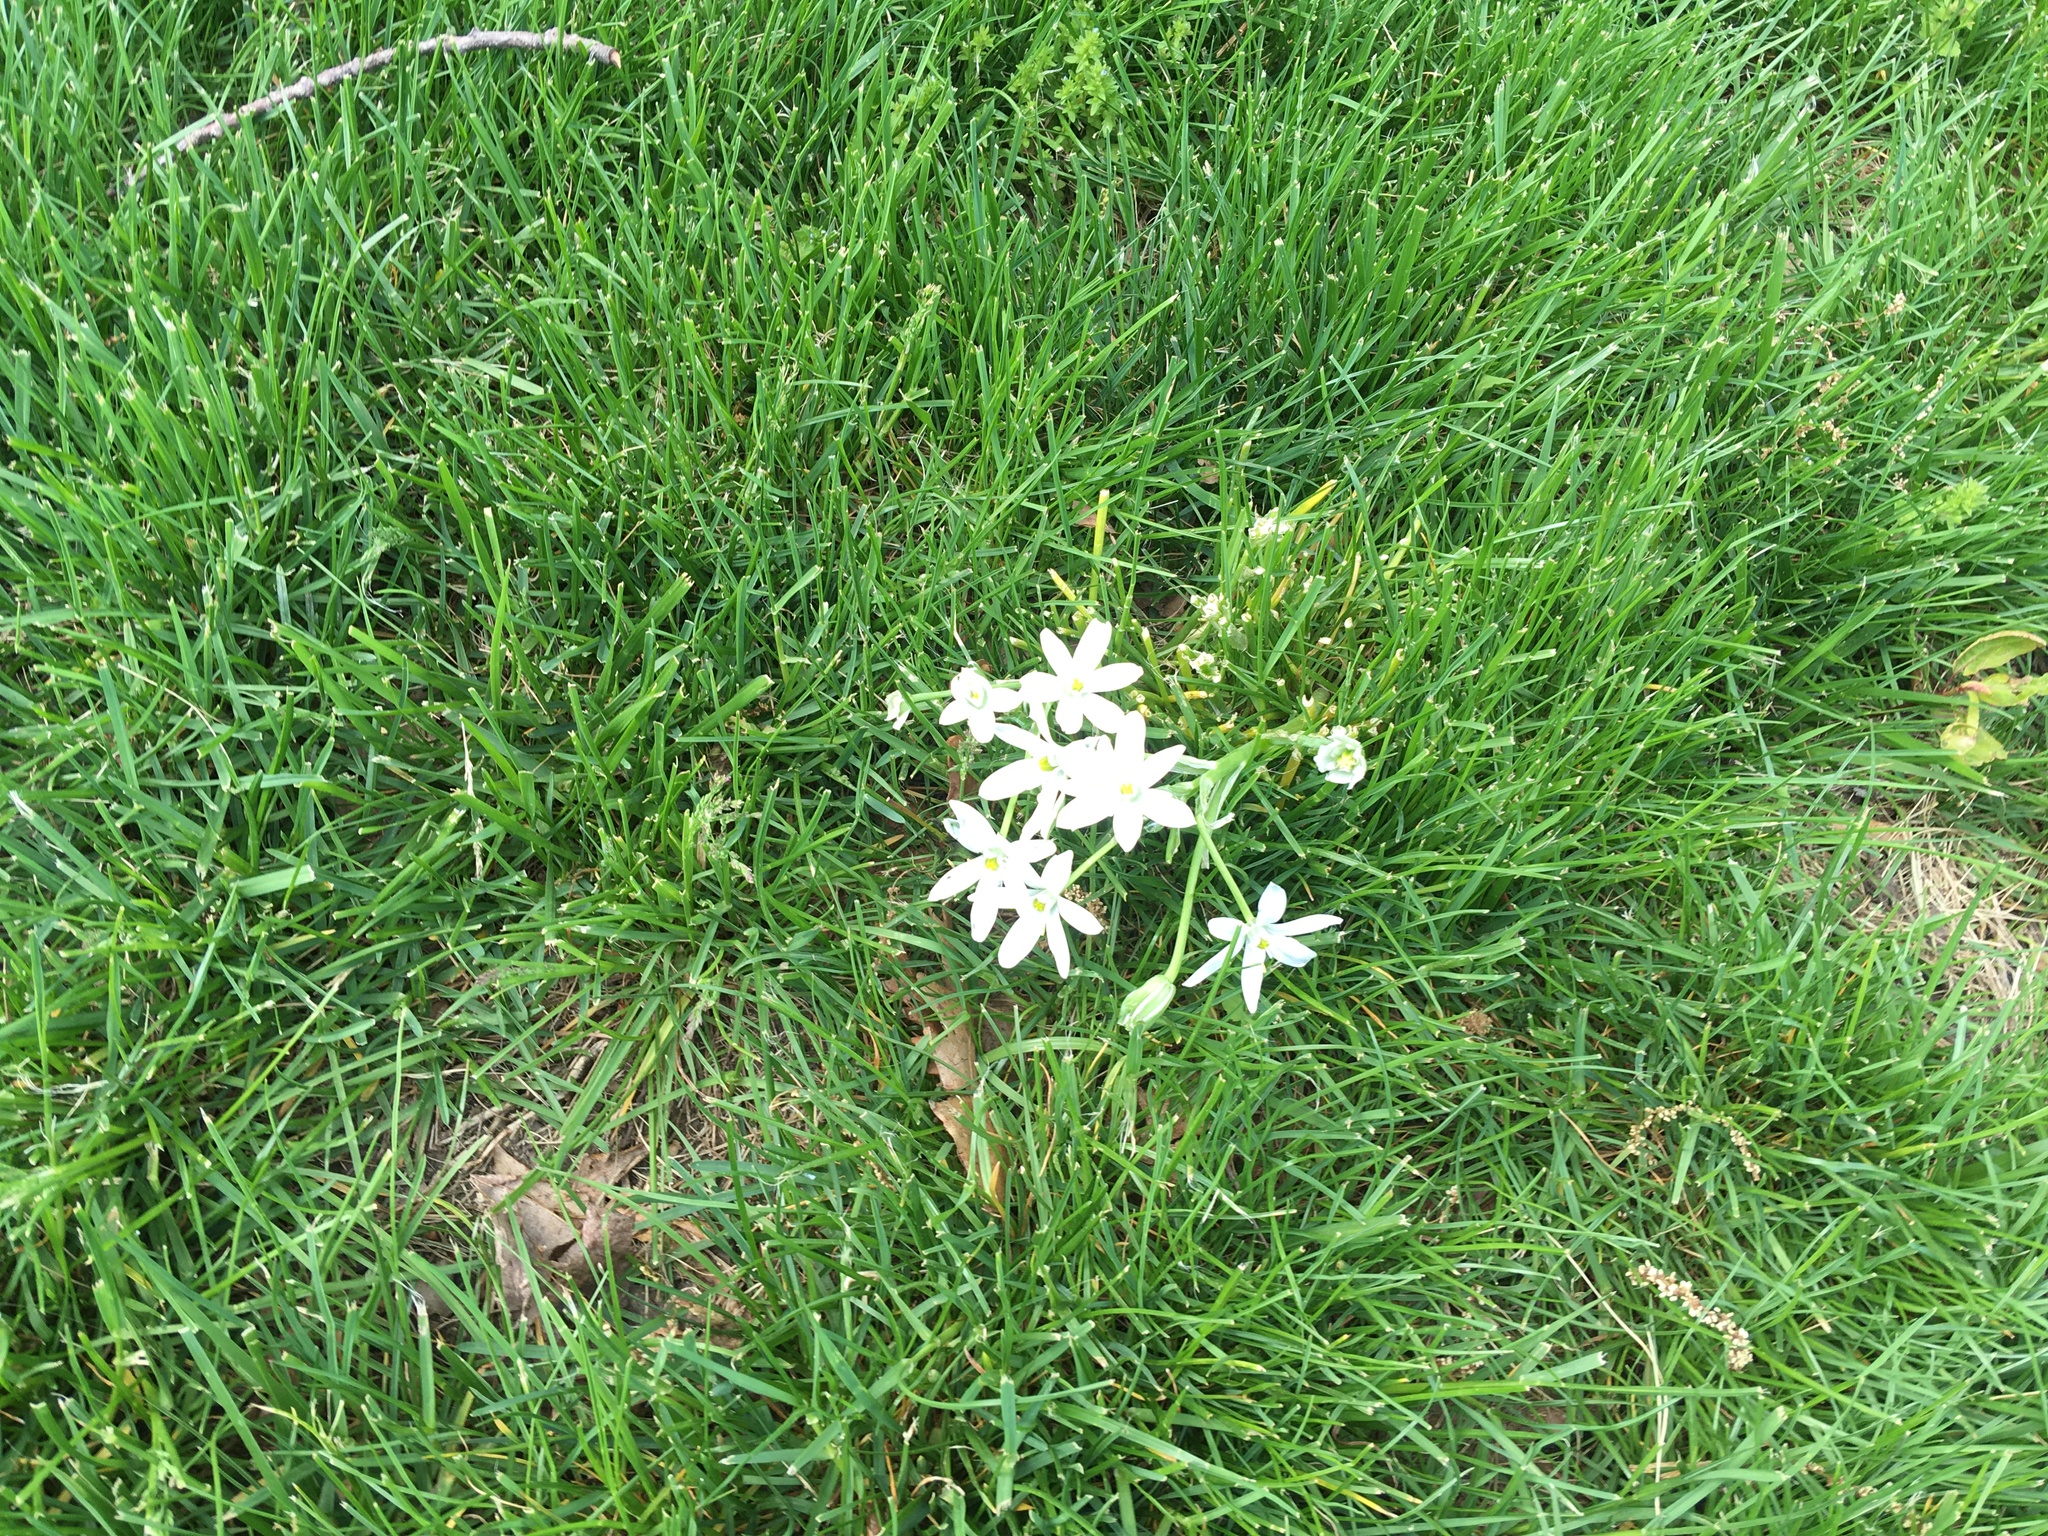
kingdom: Plantae
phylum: Tracheophyta
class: Liliopsida
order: Asparagales
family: Asparagaceae
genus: Ornithogalum
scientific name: Ornithogalum umbellatum
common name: Garden star-of-bethlehem
